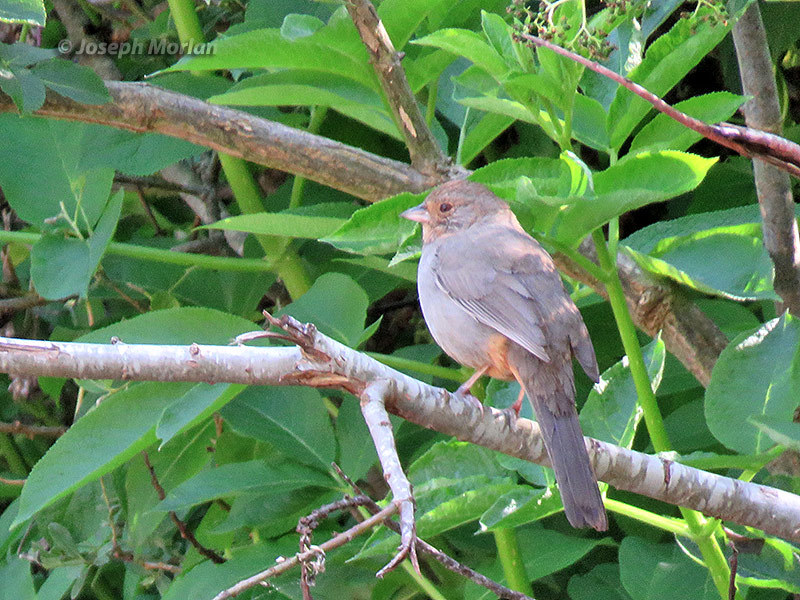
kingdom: Animalia
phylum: Chordata
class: Aves
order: Passeriformes
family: Passerellidae
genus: Melozone
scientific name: Melozone crissalis
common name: California towhee
